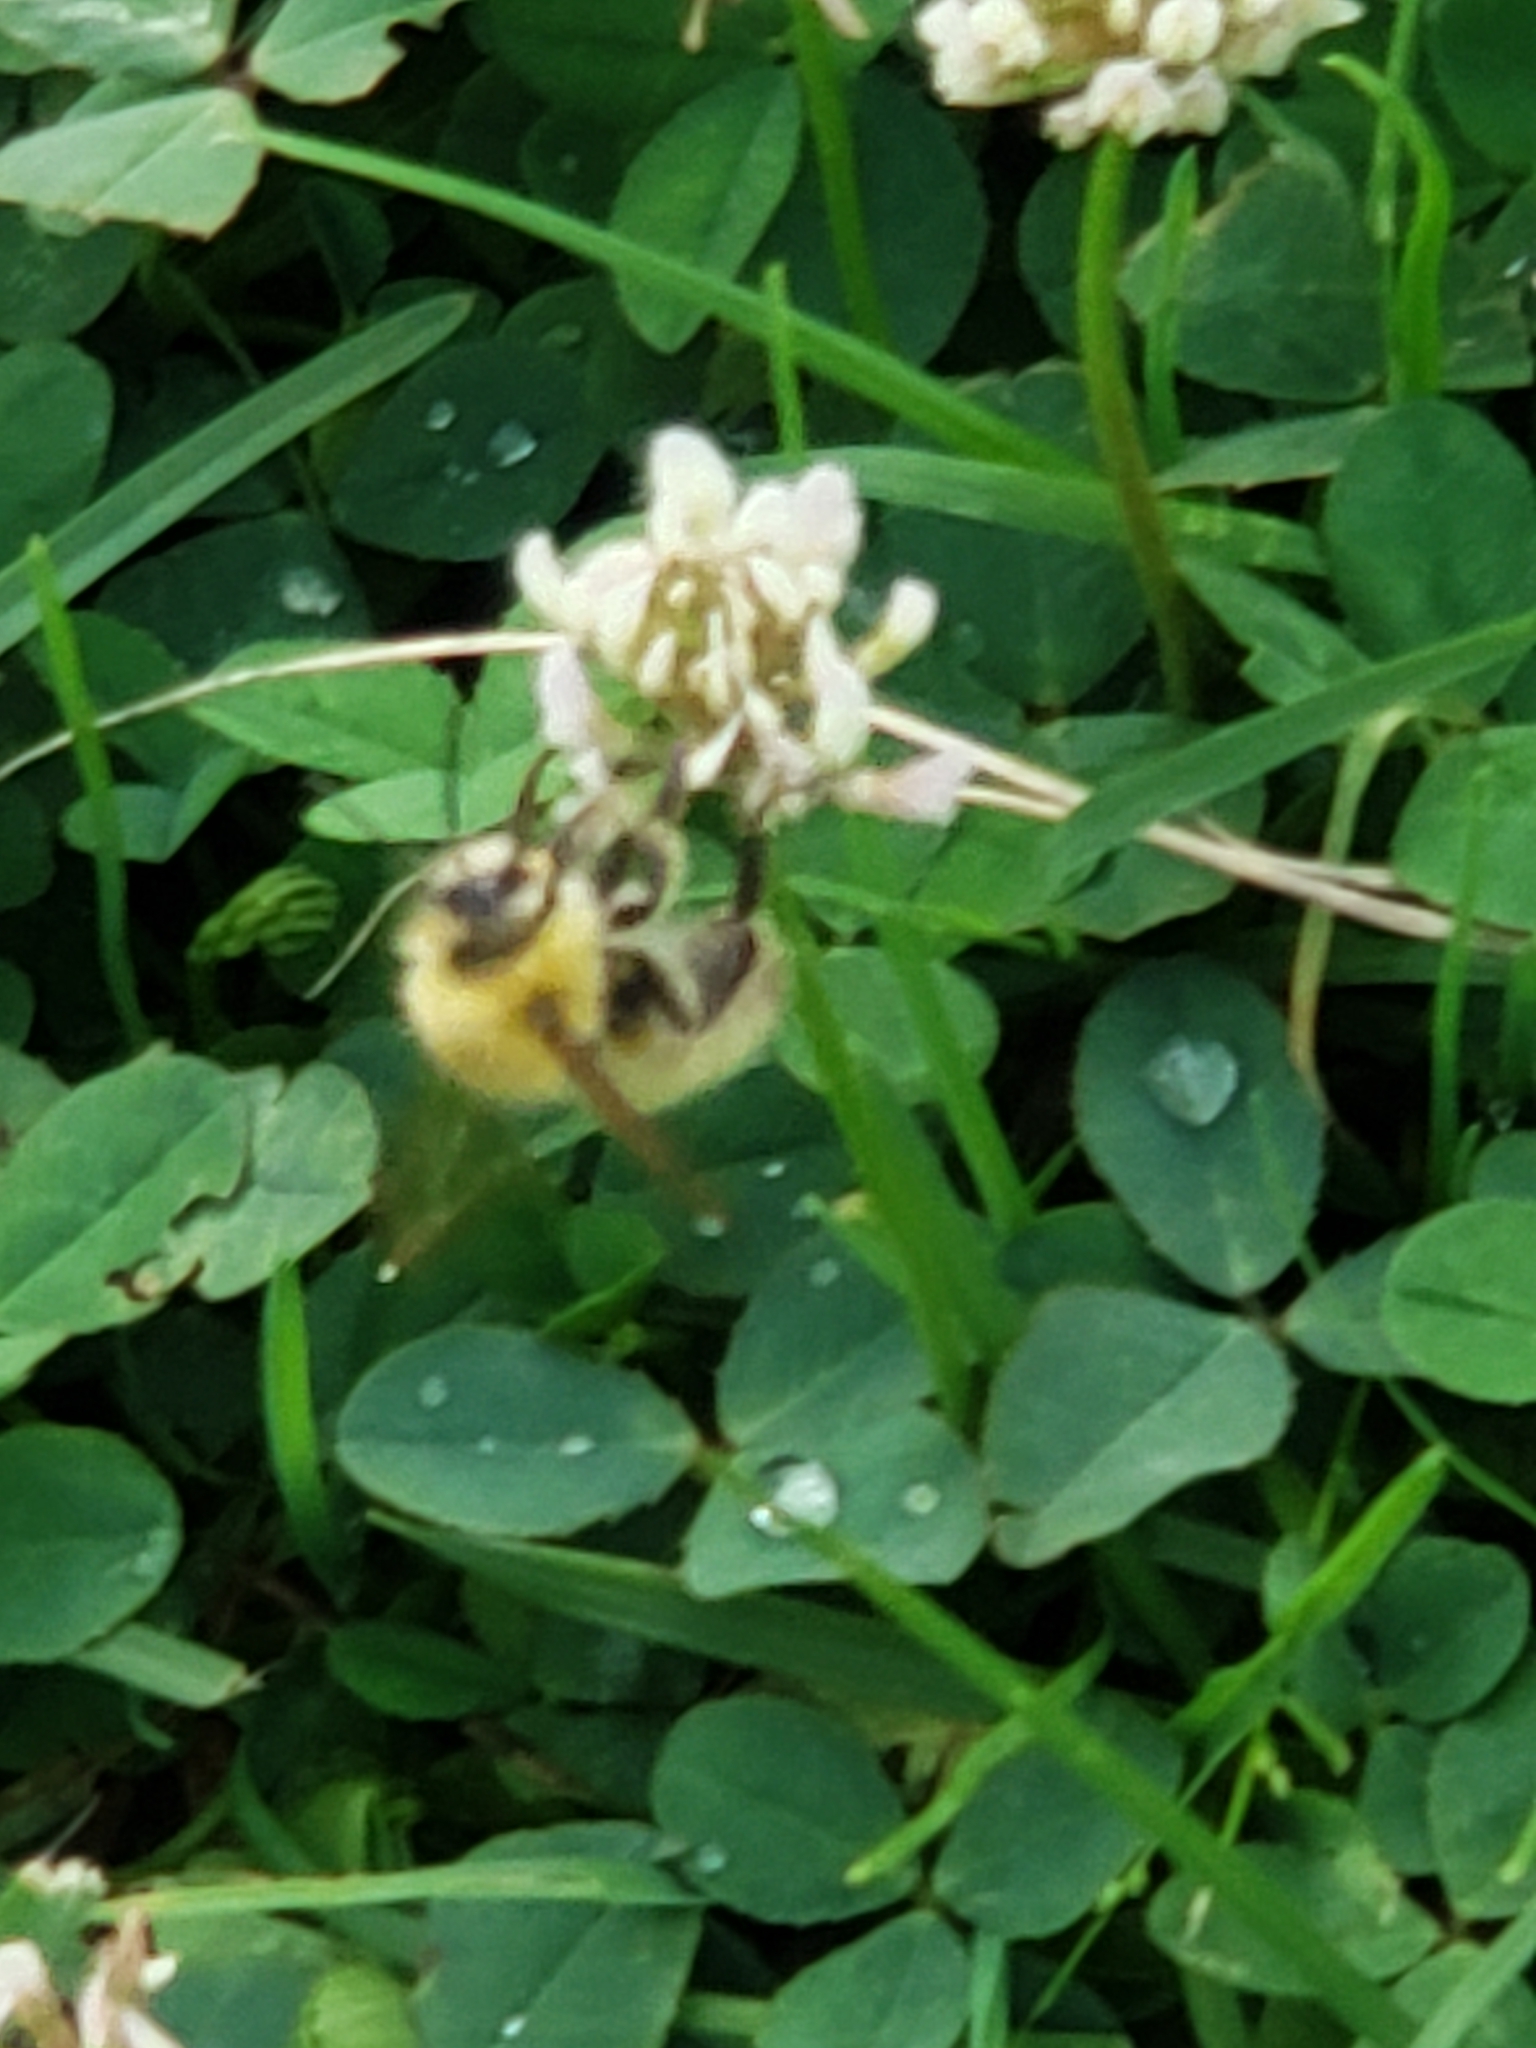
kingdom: Animalia
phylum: Arthropoda
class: Insecta
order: Hymenoptera
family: Apidae
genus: Bombus
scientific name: Bombus perplexus
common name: Confusing bumble bee
